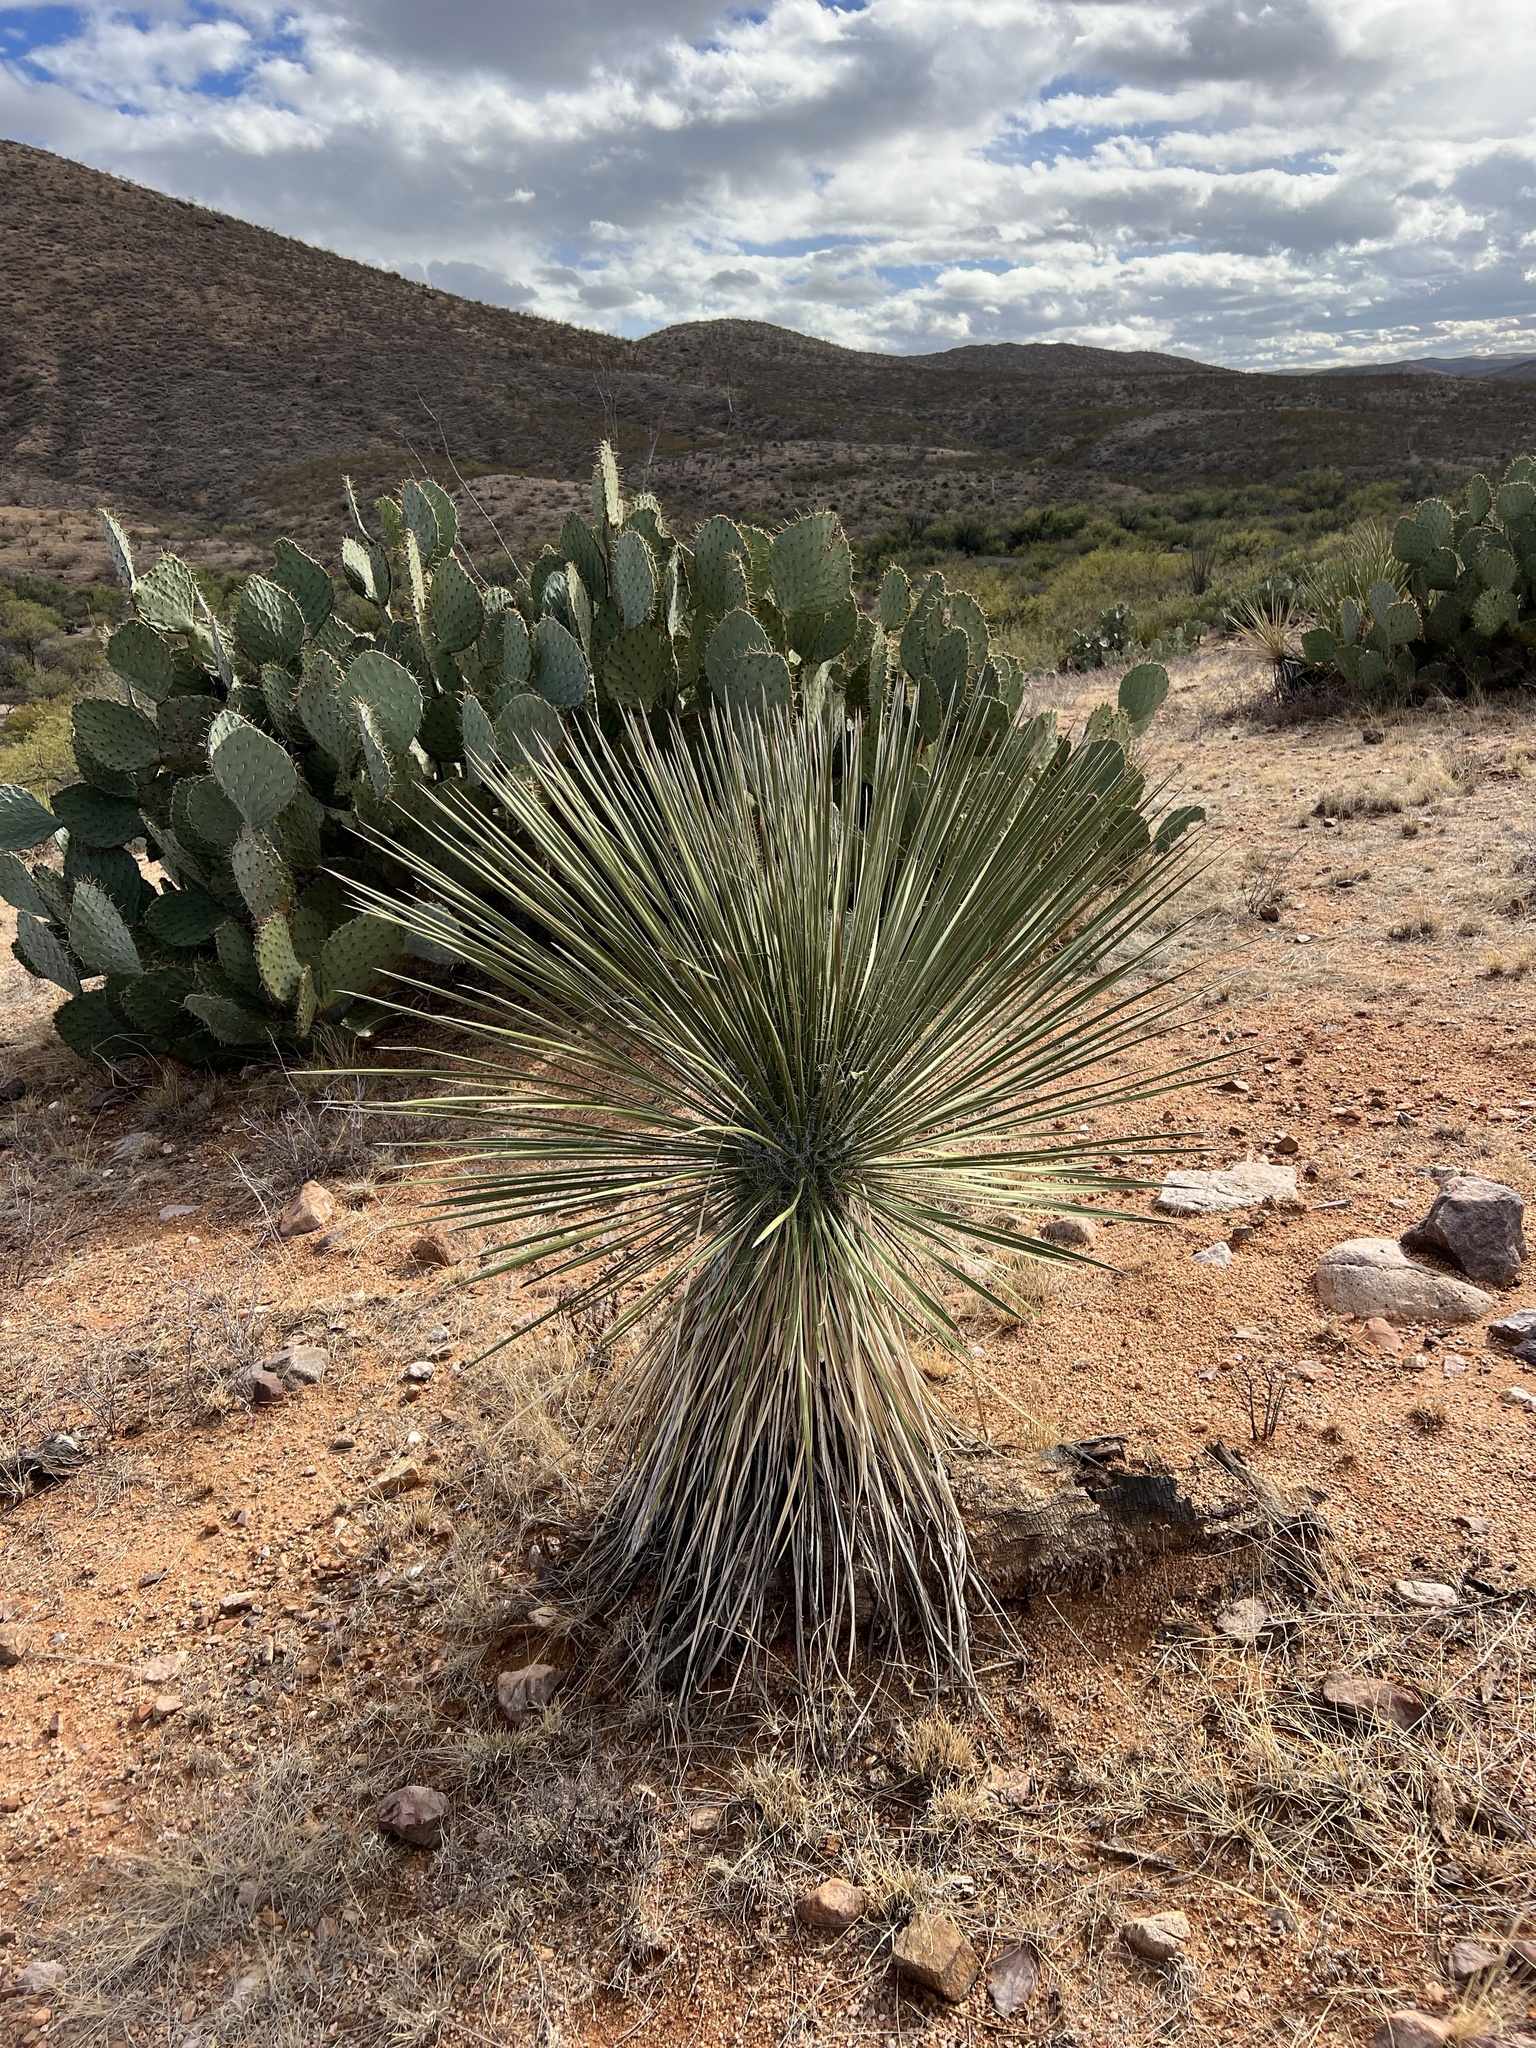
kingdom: Plantae
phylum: Tracheophyta
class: Liliopsida
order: Asparagales
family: Asparagaceae
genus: Yucca
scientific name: Yucca elata
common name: Palmella
